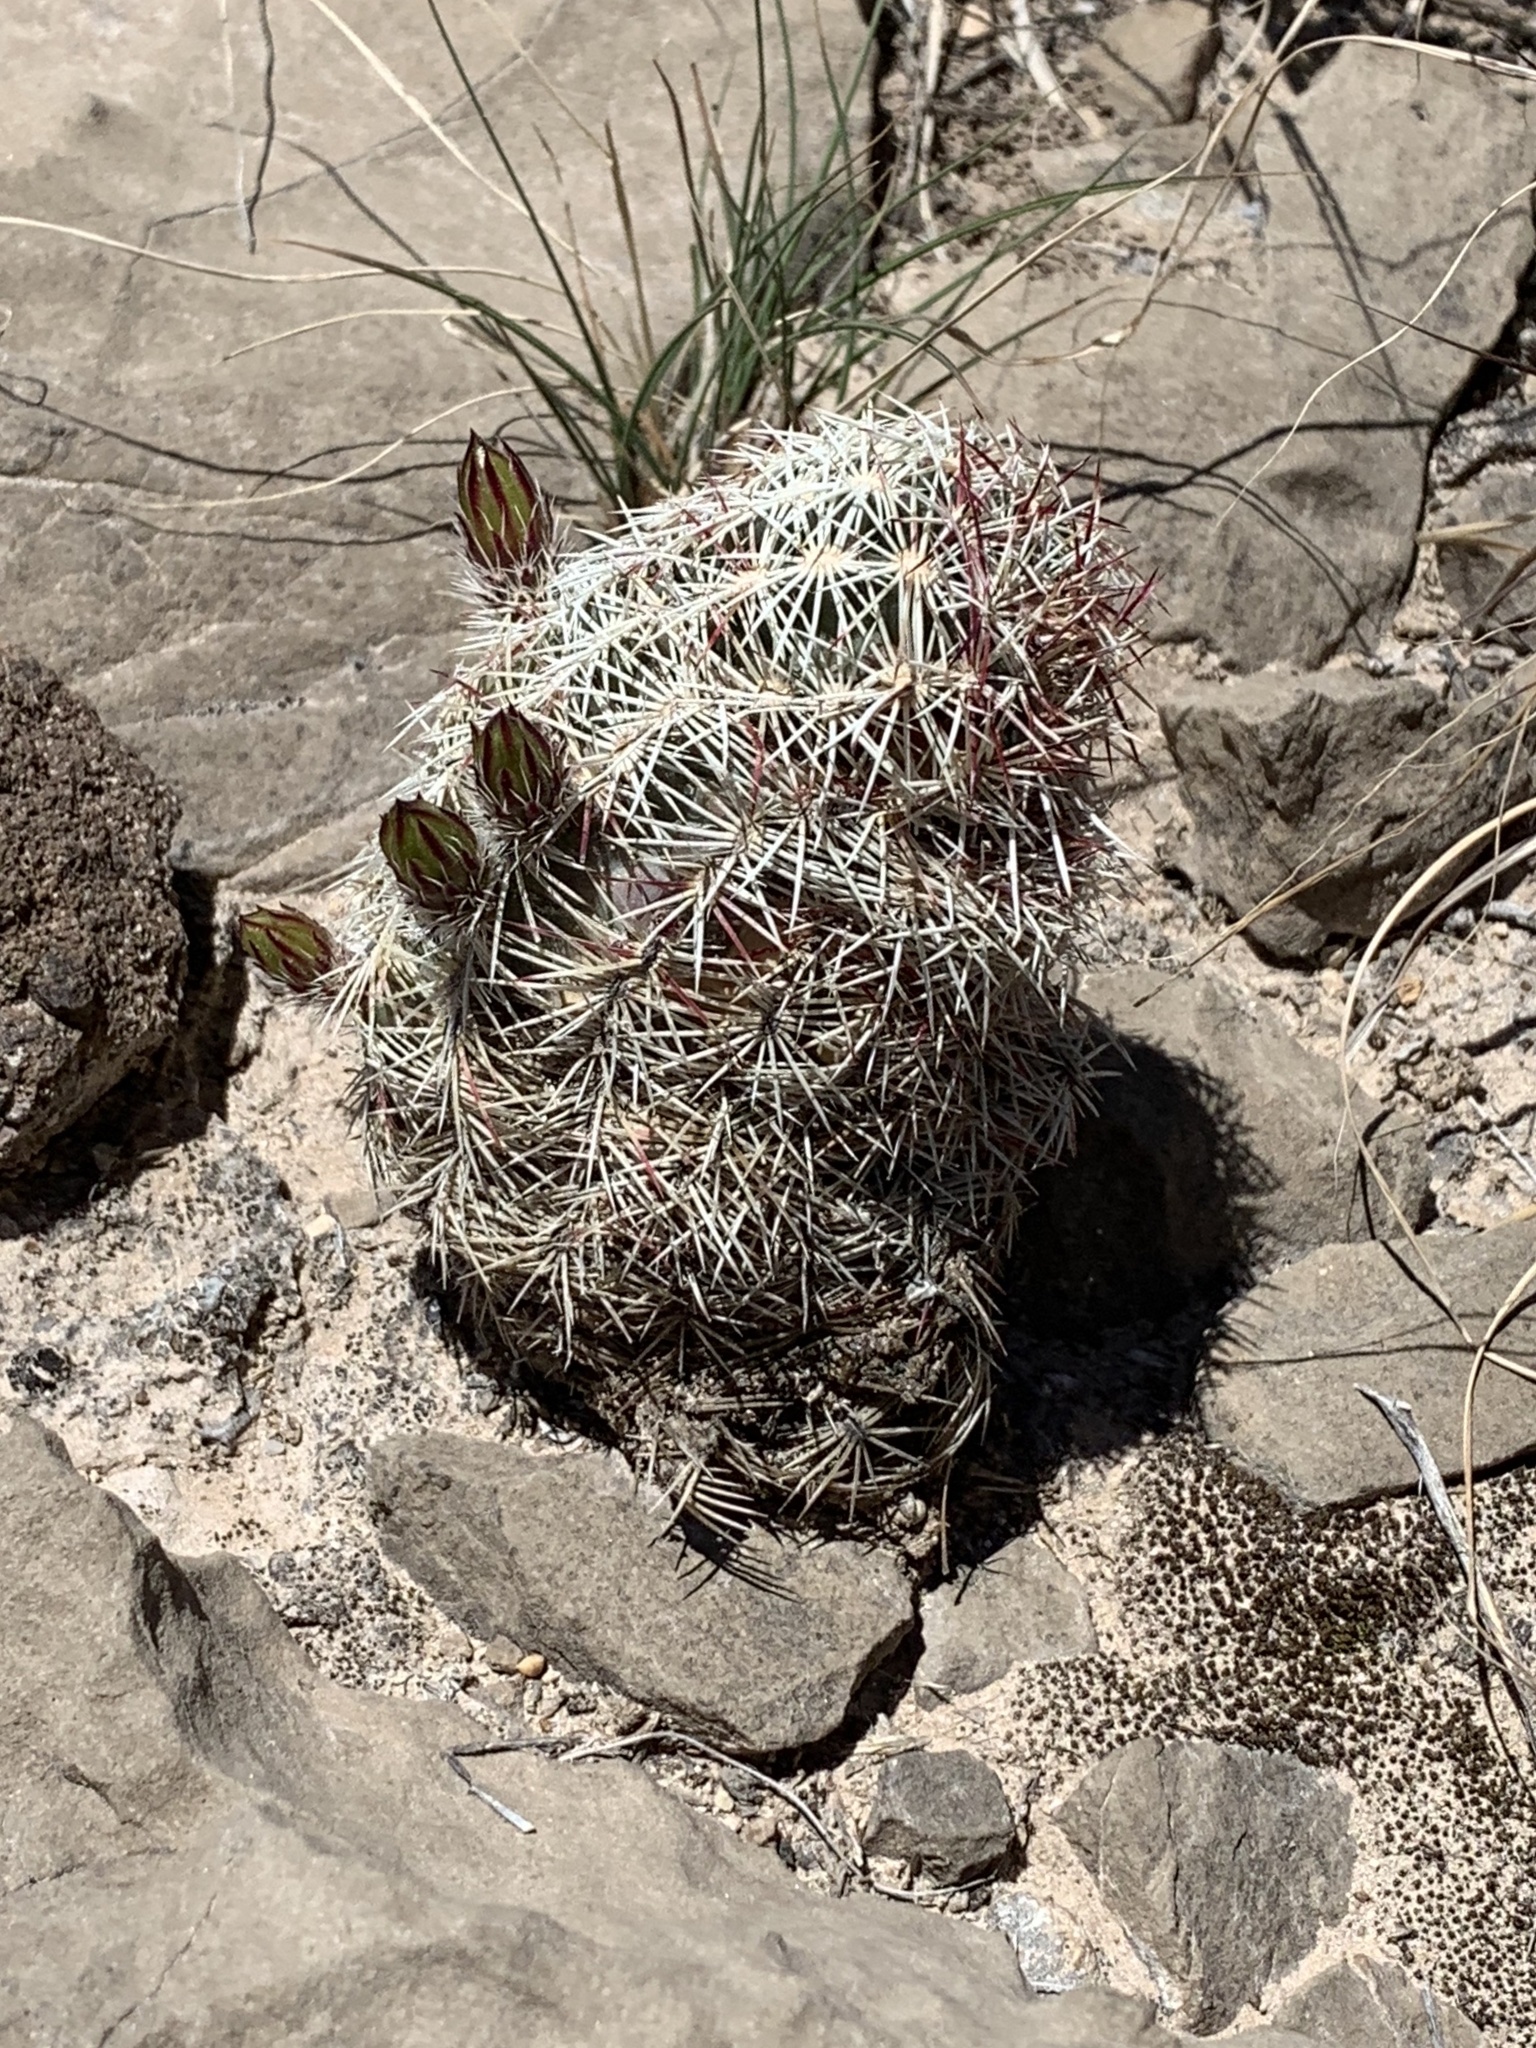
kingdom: Plantae
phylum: Tracheophyta
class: Magnoliopsida
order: Caryophyllales
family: Cactaceae
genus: Echinocereus
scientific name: Echinocereus viridiflorus
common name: Nylon hedgehog cactus
